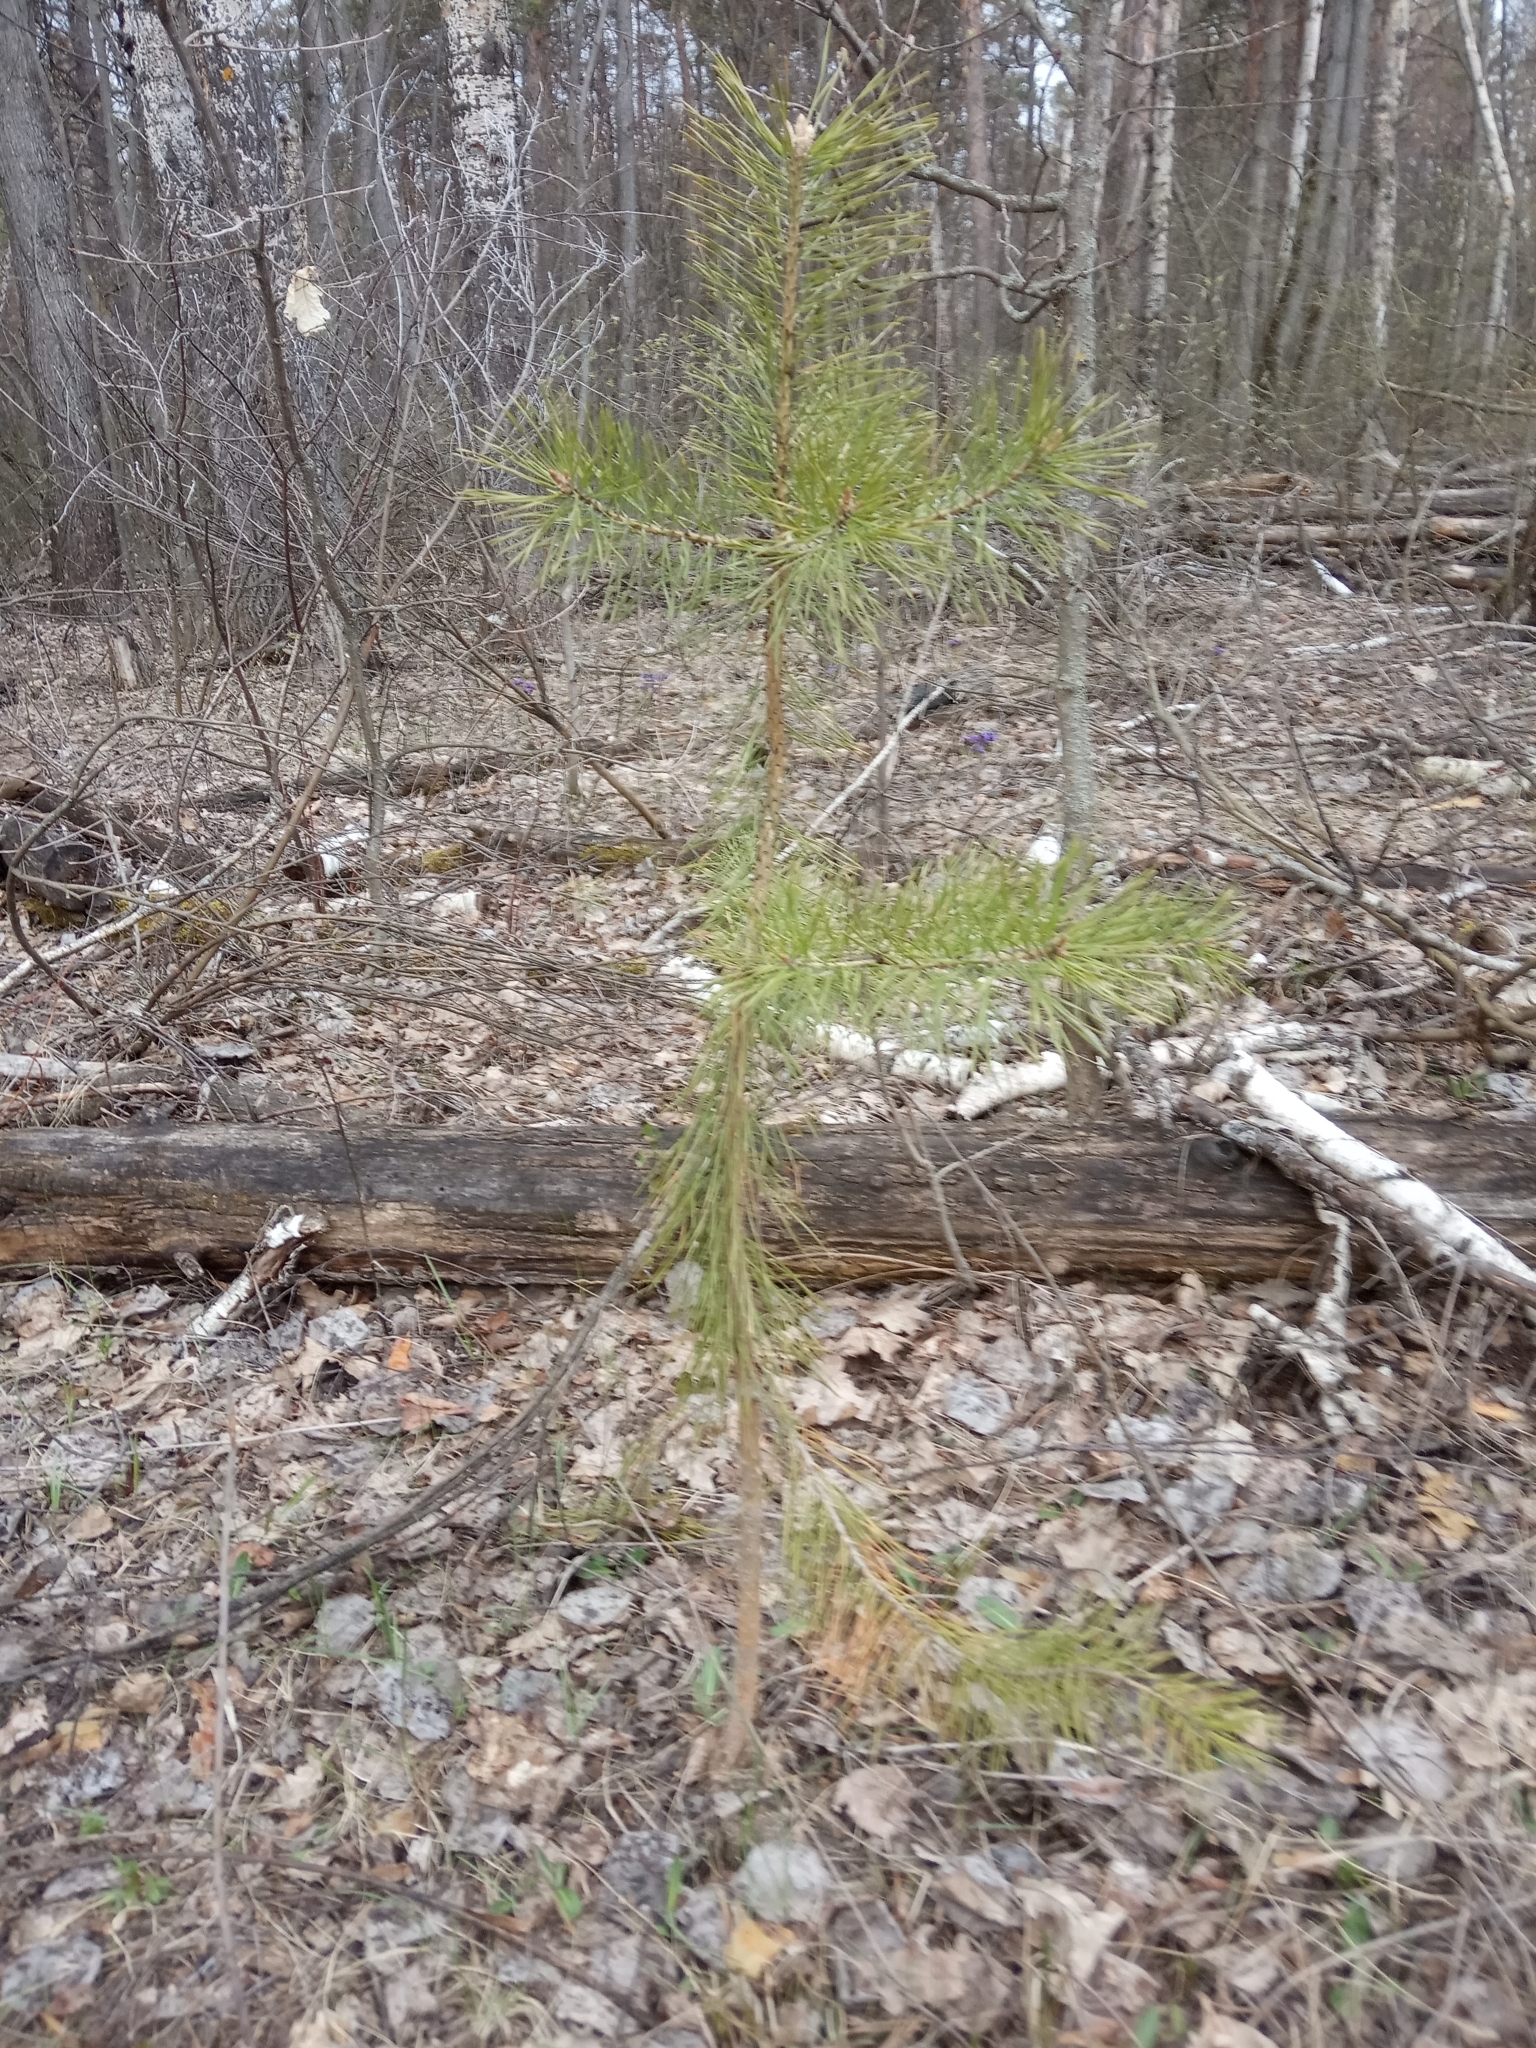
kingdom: Plantae
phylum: Tracheophyta
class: Pinopsida
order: Pinales
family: Pinaceae
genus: Pinus
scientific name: Pinus sylvestris
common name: Scots pine
